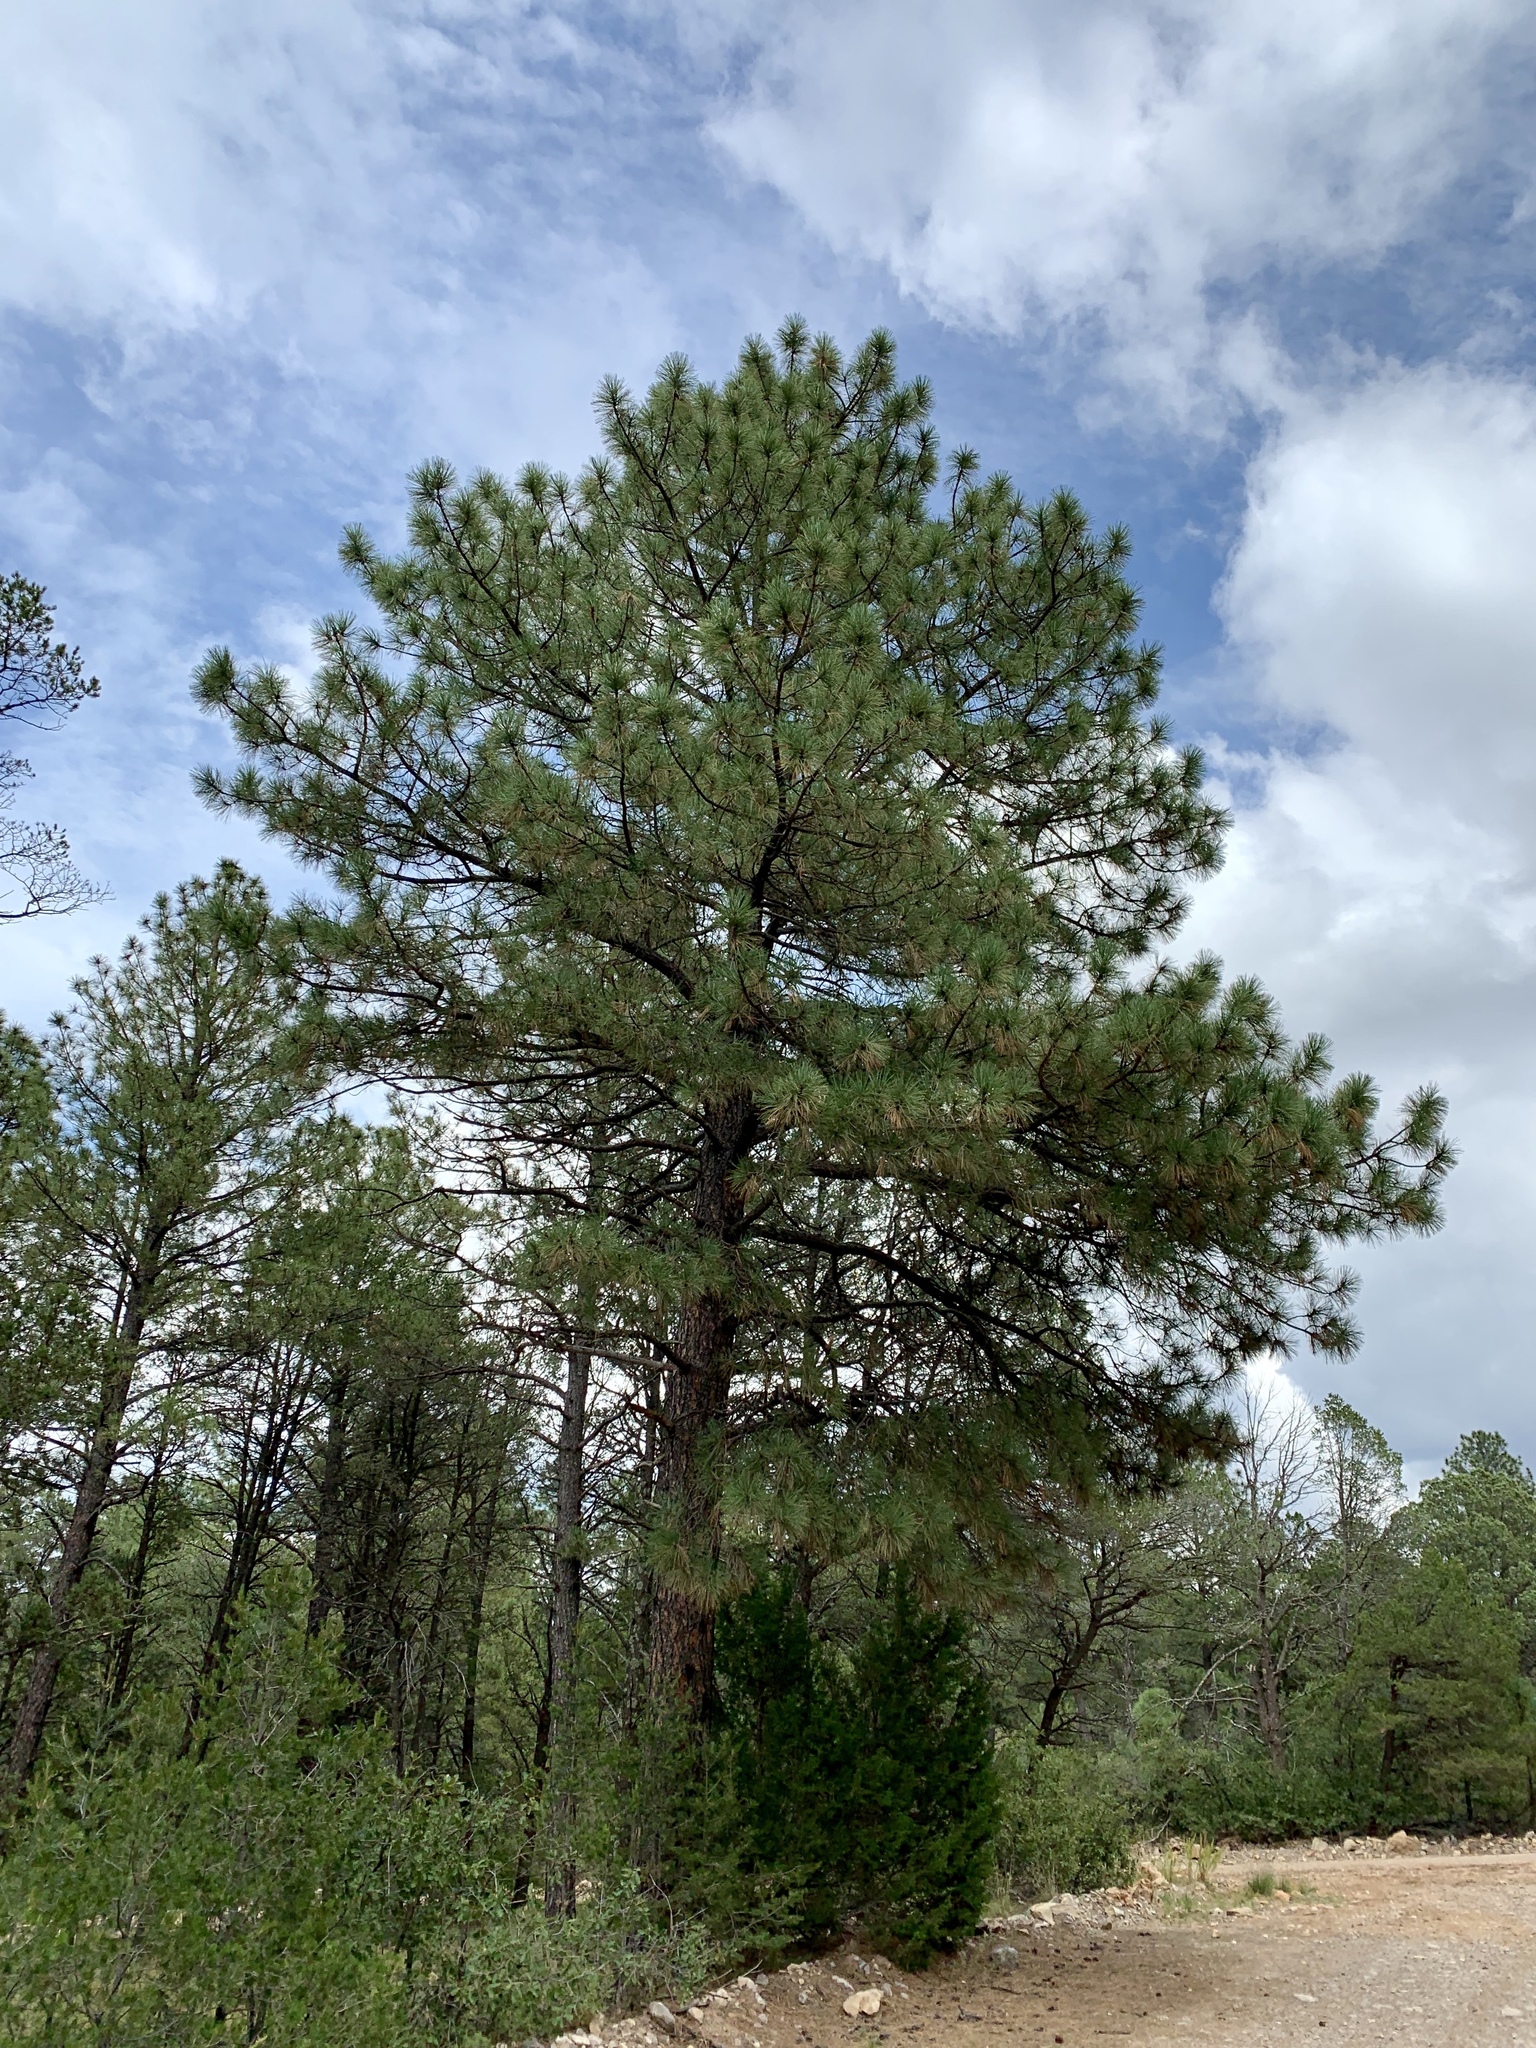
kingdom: Plantae
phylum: Tracheophyta
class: Pinopsida
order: Pinales
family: Pinaceae
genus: Pinus
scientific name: Pinus ponderosa
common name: Western yellow-pine
